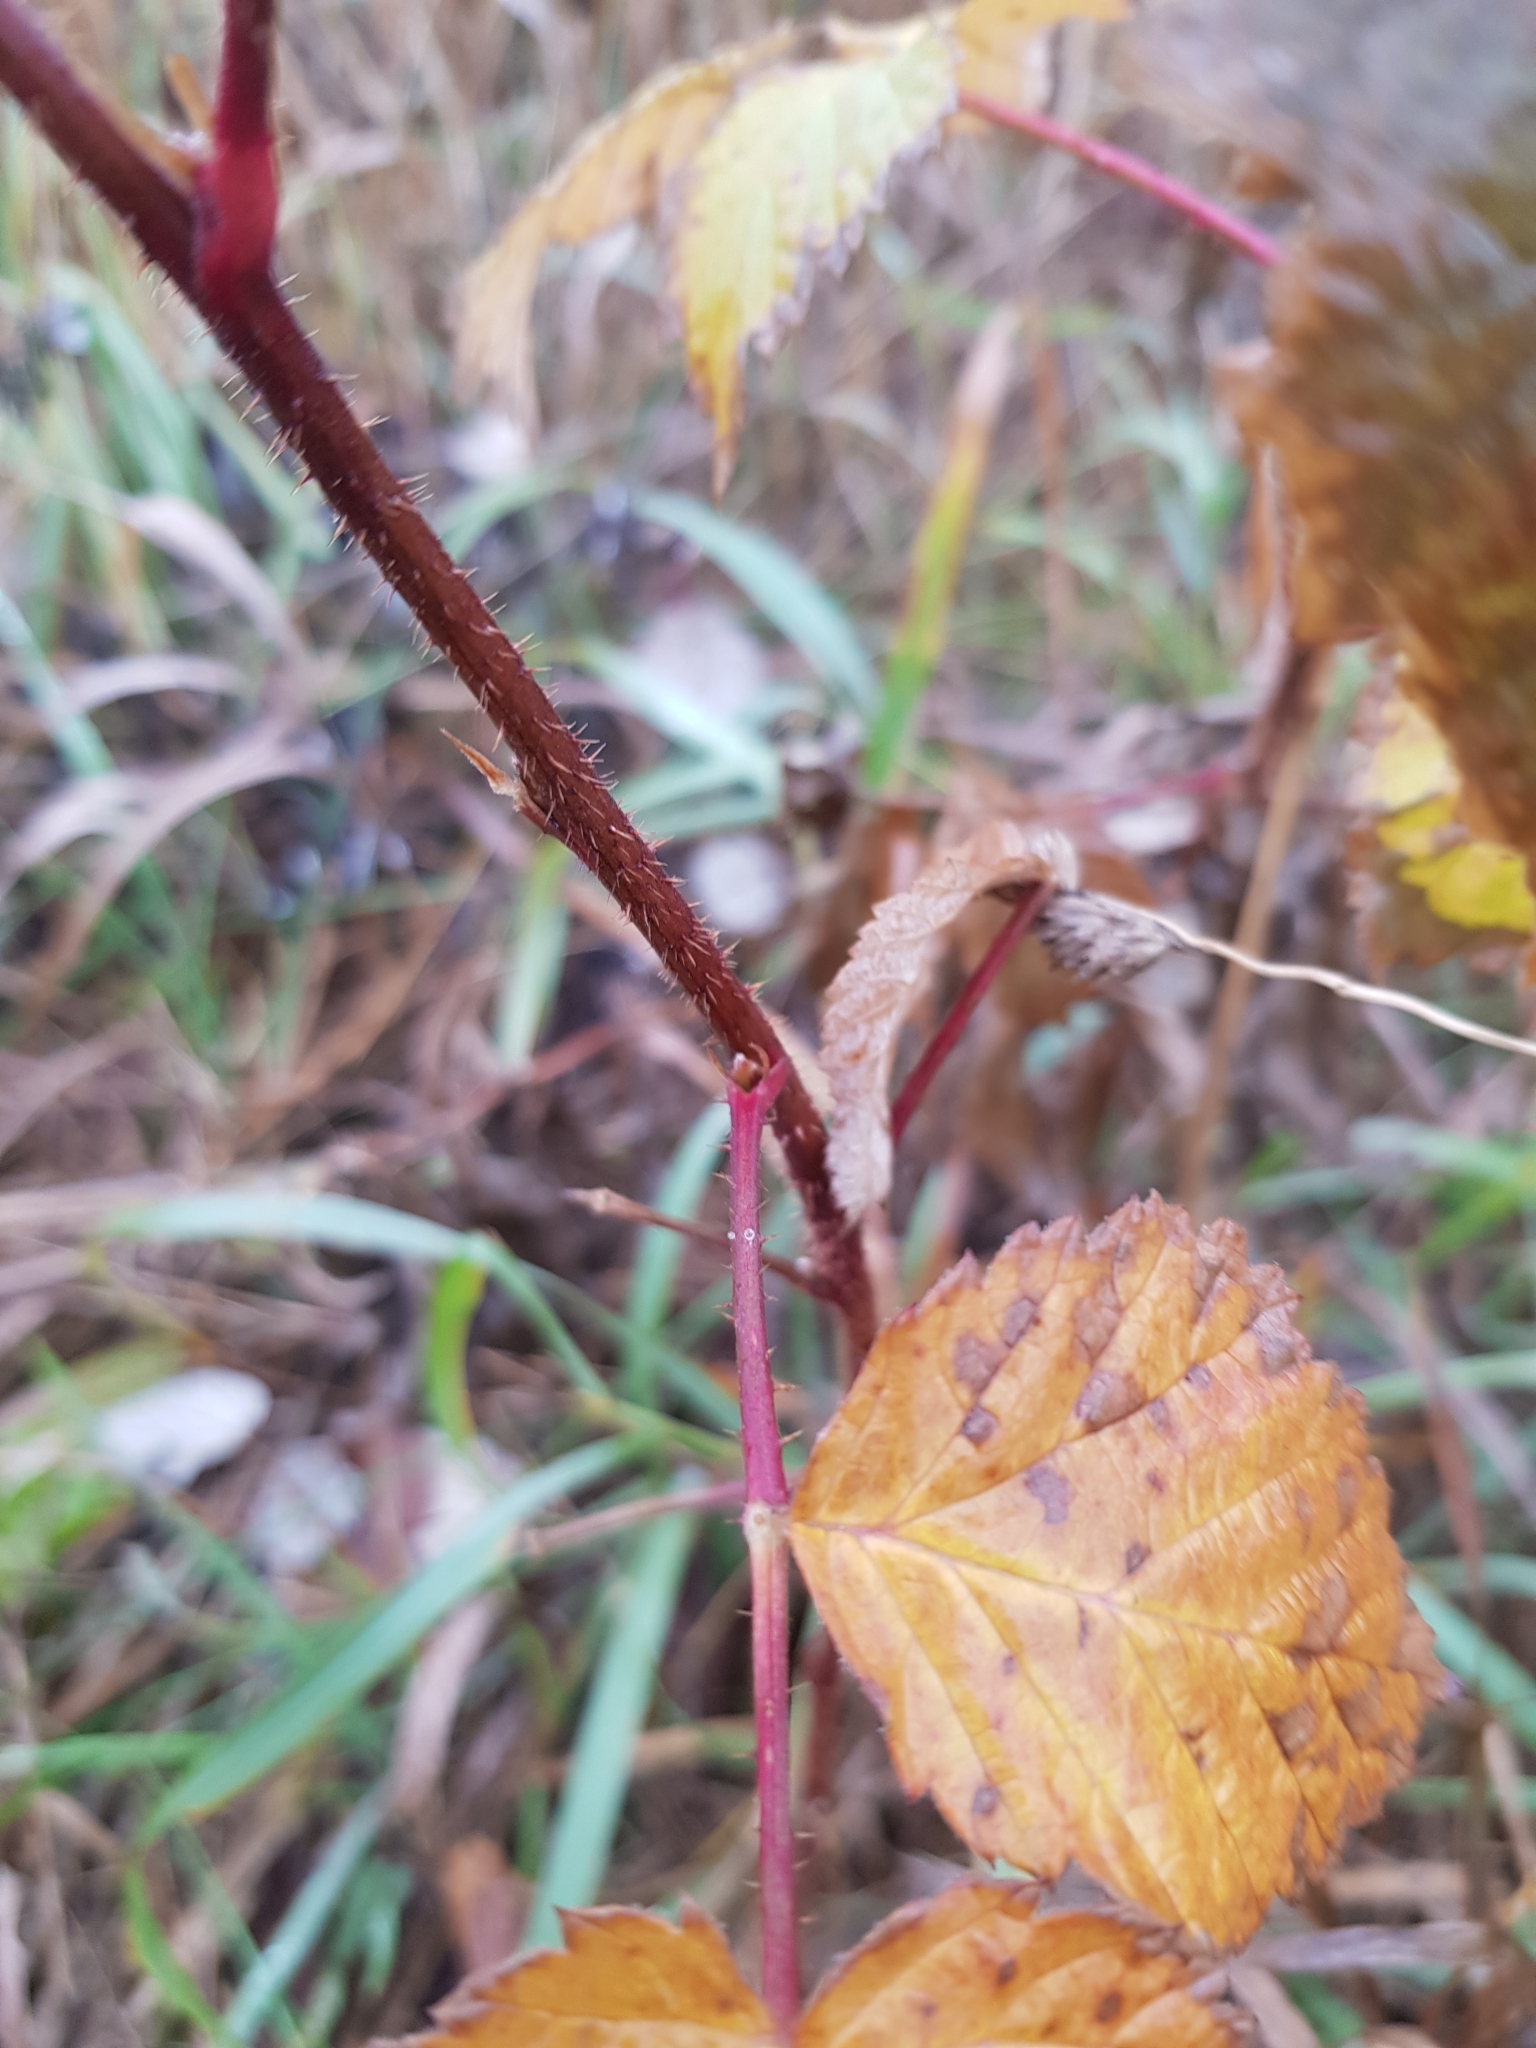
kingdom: Plantae
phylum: Tracheophyta
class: Magnoliopsida
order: Rosales
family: Rosaceae
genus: Rubus
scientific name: Rubus idaeus
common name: Raspberry
